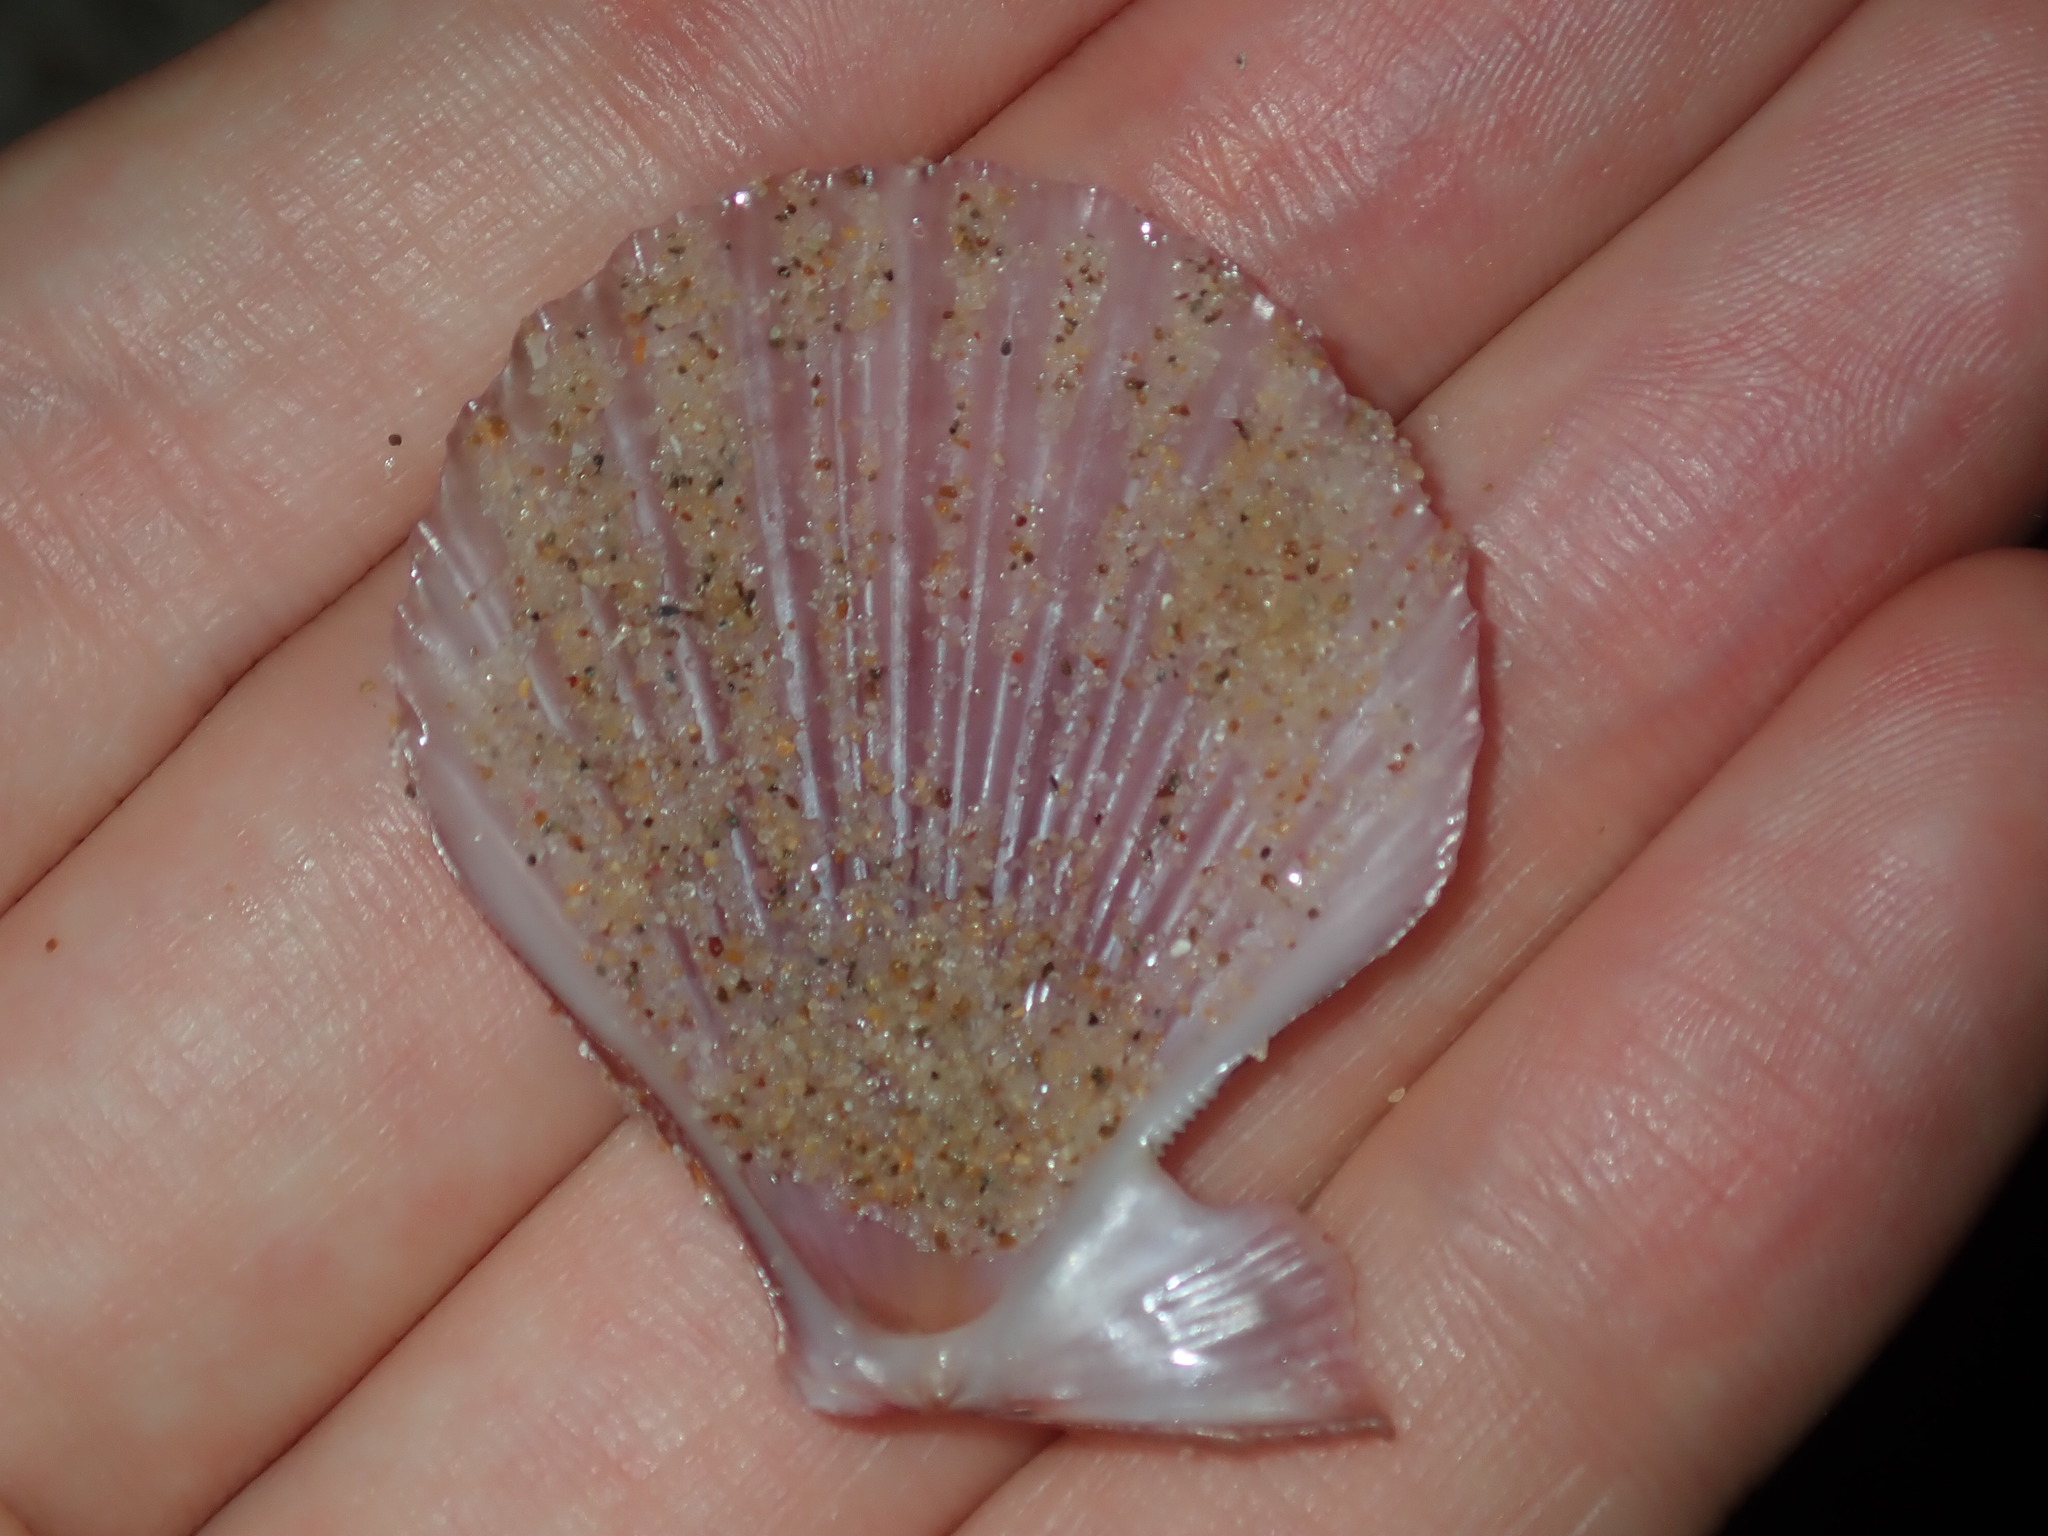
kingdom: Animalia
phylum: Mollusca
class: Bivalvia
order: Pectinida
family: Pectinidae
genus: Semipallium
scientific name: Semipallium aktinos
